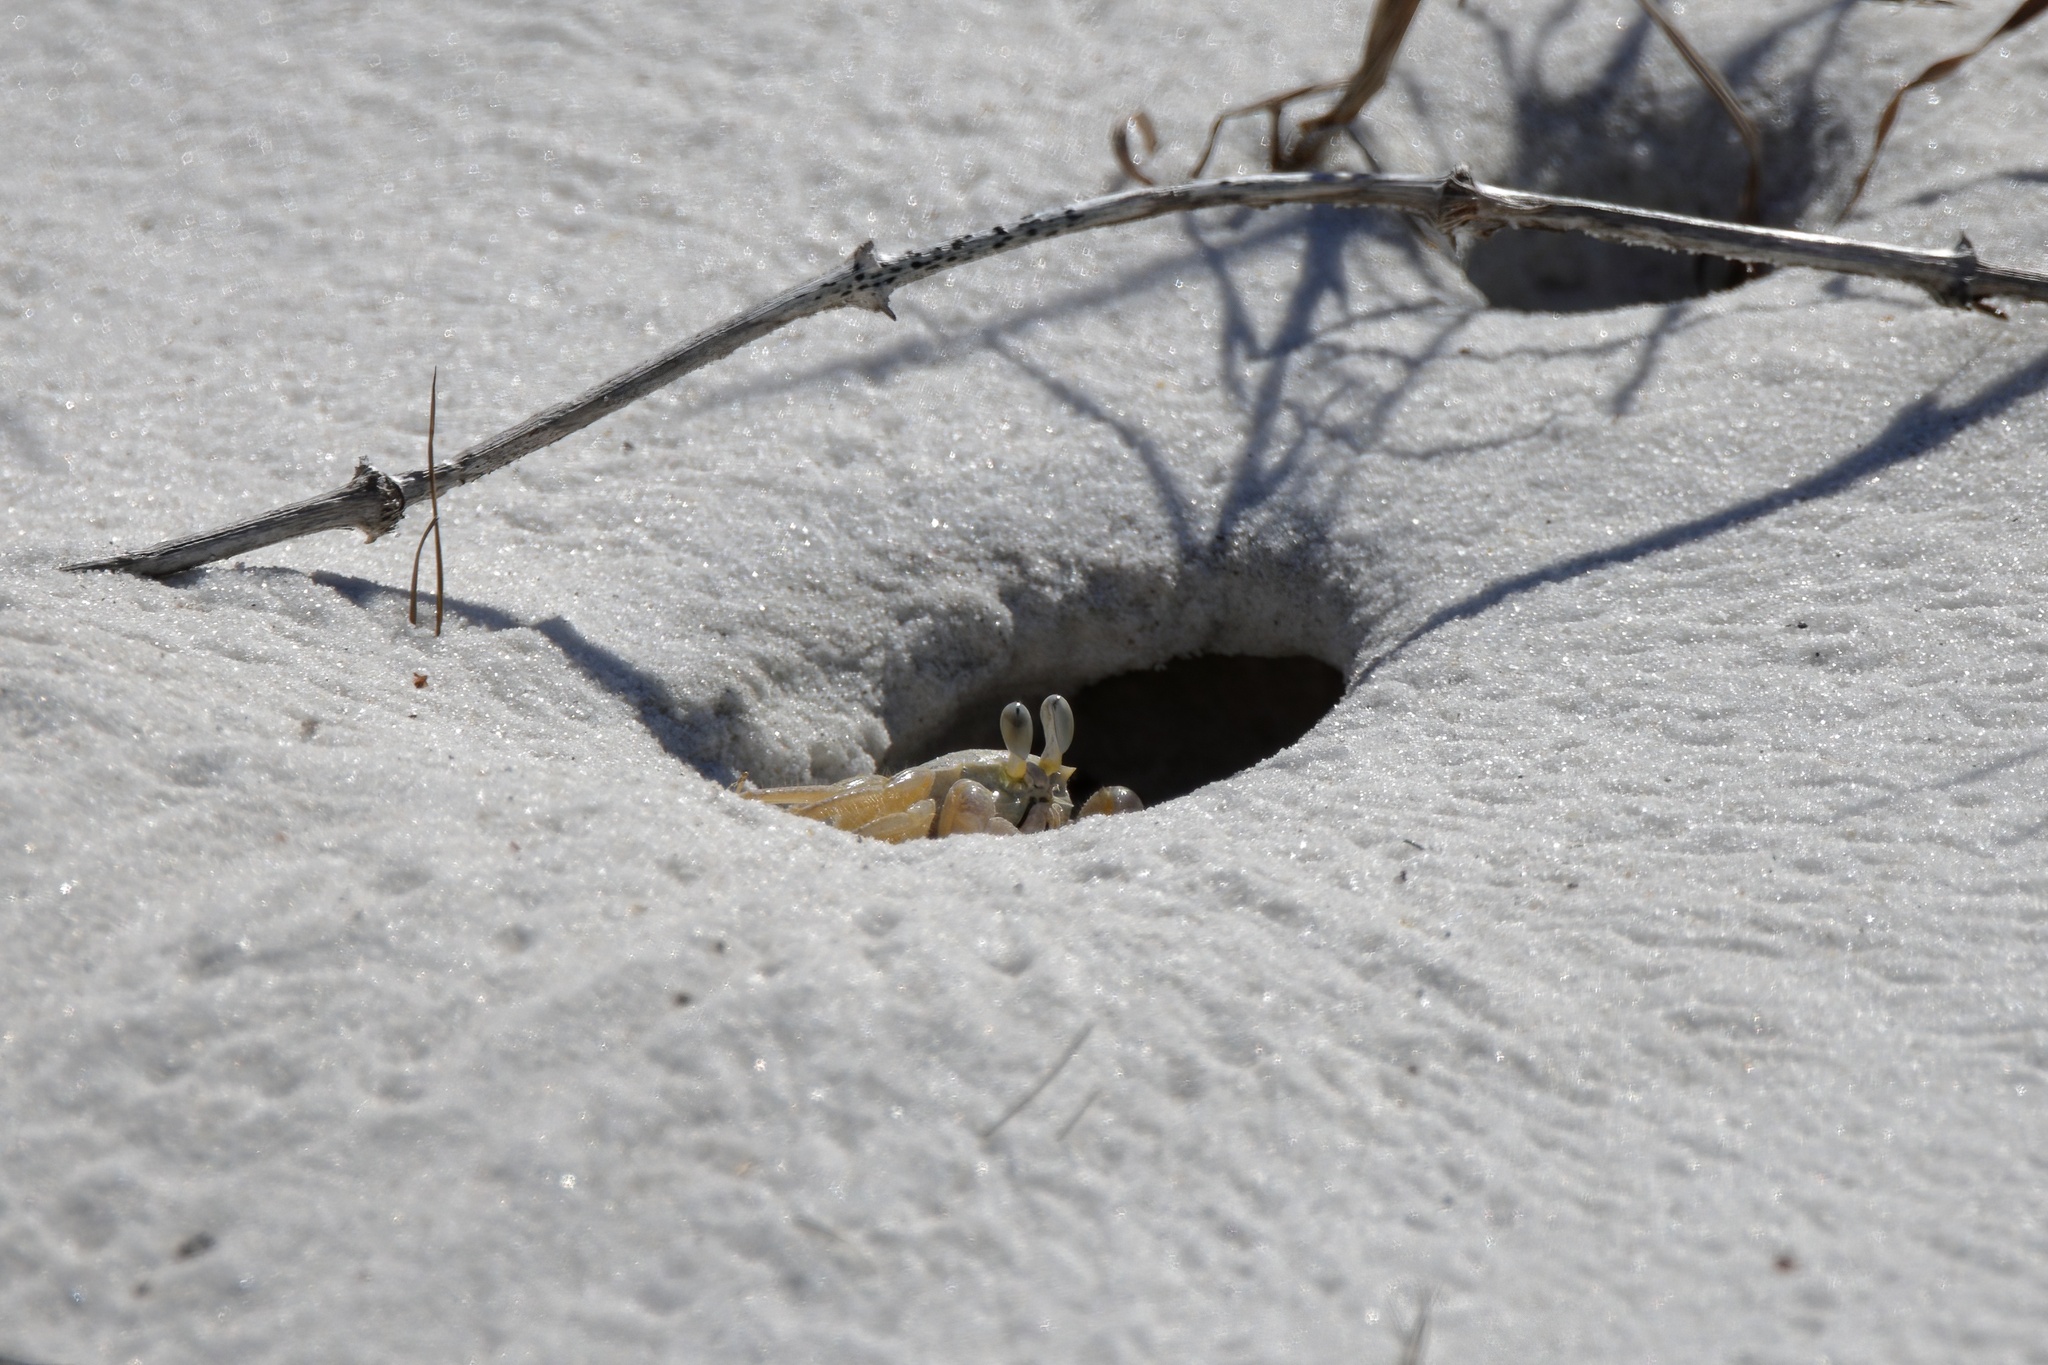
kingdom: Animalia
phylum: Arthropoda
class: Malacostraca
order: Decapoda
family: Ocypodidae
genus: Ocypode
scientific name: Ocypode quadrata
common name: Ghost crab
